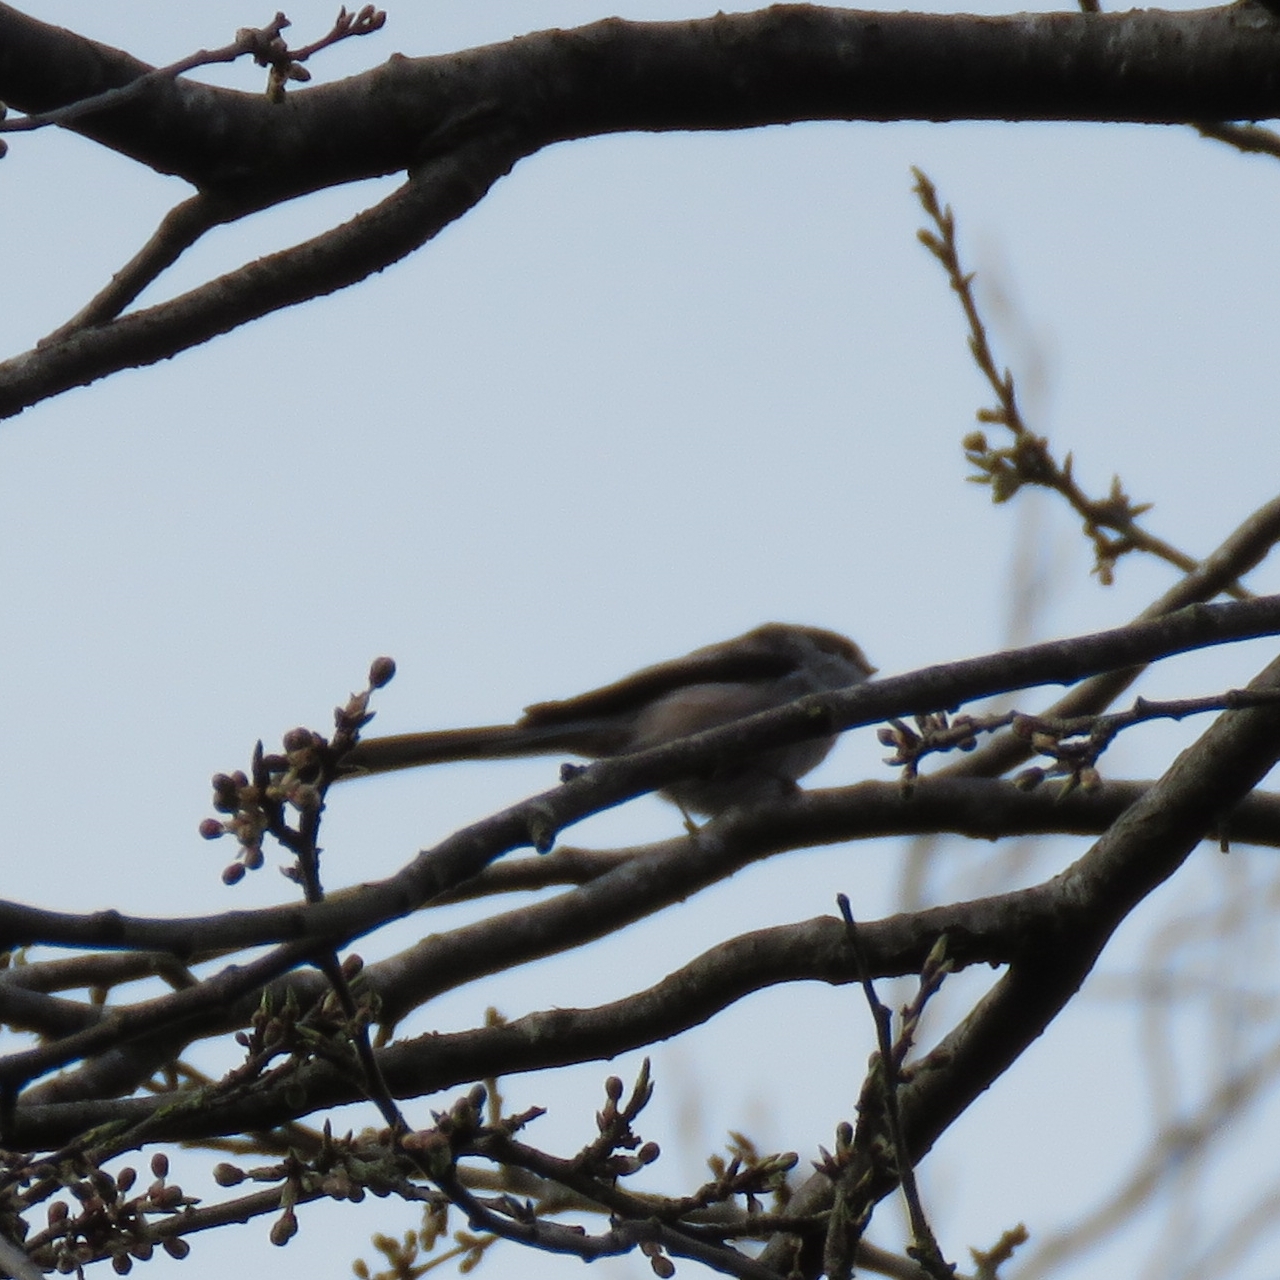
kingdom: Animalia
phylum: Chordata
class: Aves
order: Passeriformes
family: Aegithalidae
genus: Aegithalos
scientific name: Aegithalos caudatus
